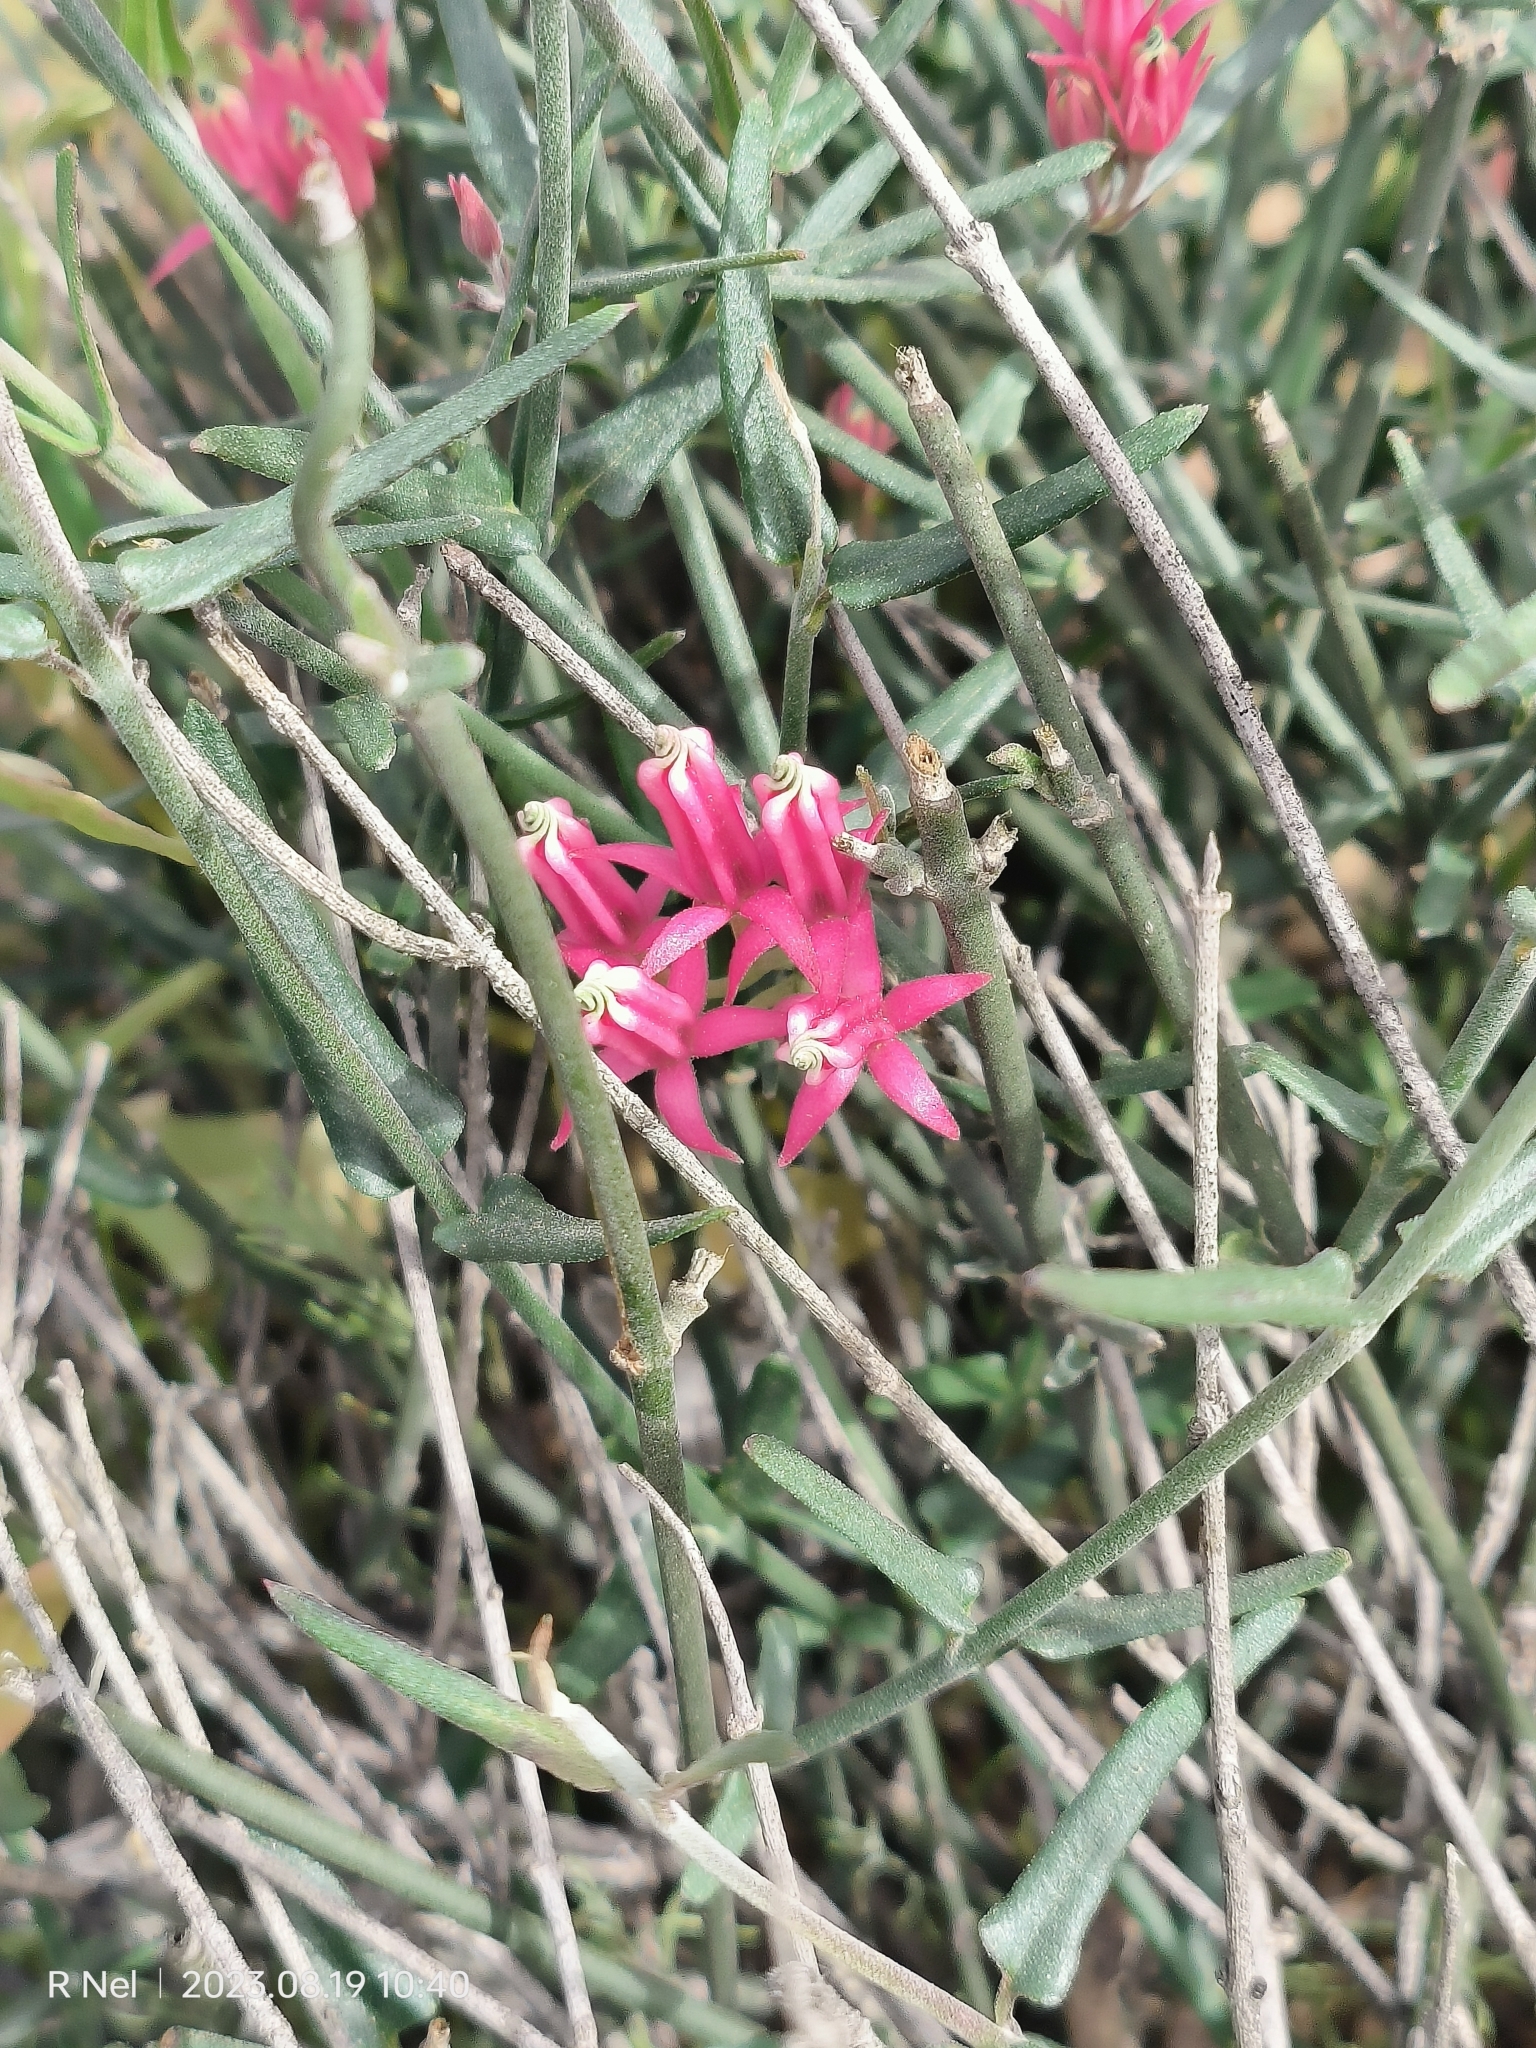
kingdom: Plantae
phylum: Tracheophyta
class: Magnoliopsida
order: Gentianales
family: Apocynaceae
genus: Microloma
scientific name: Microloma sagittatum
